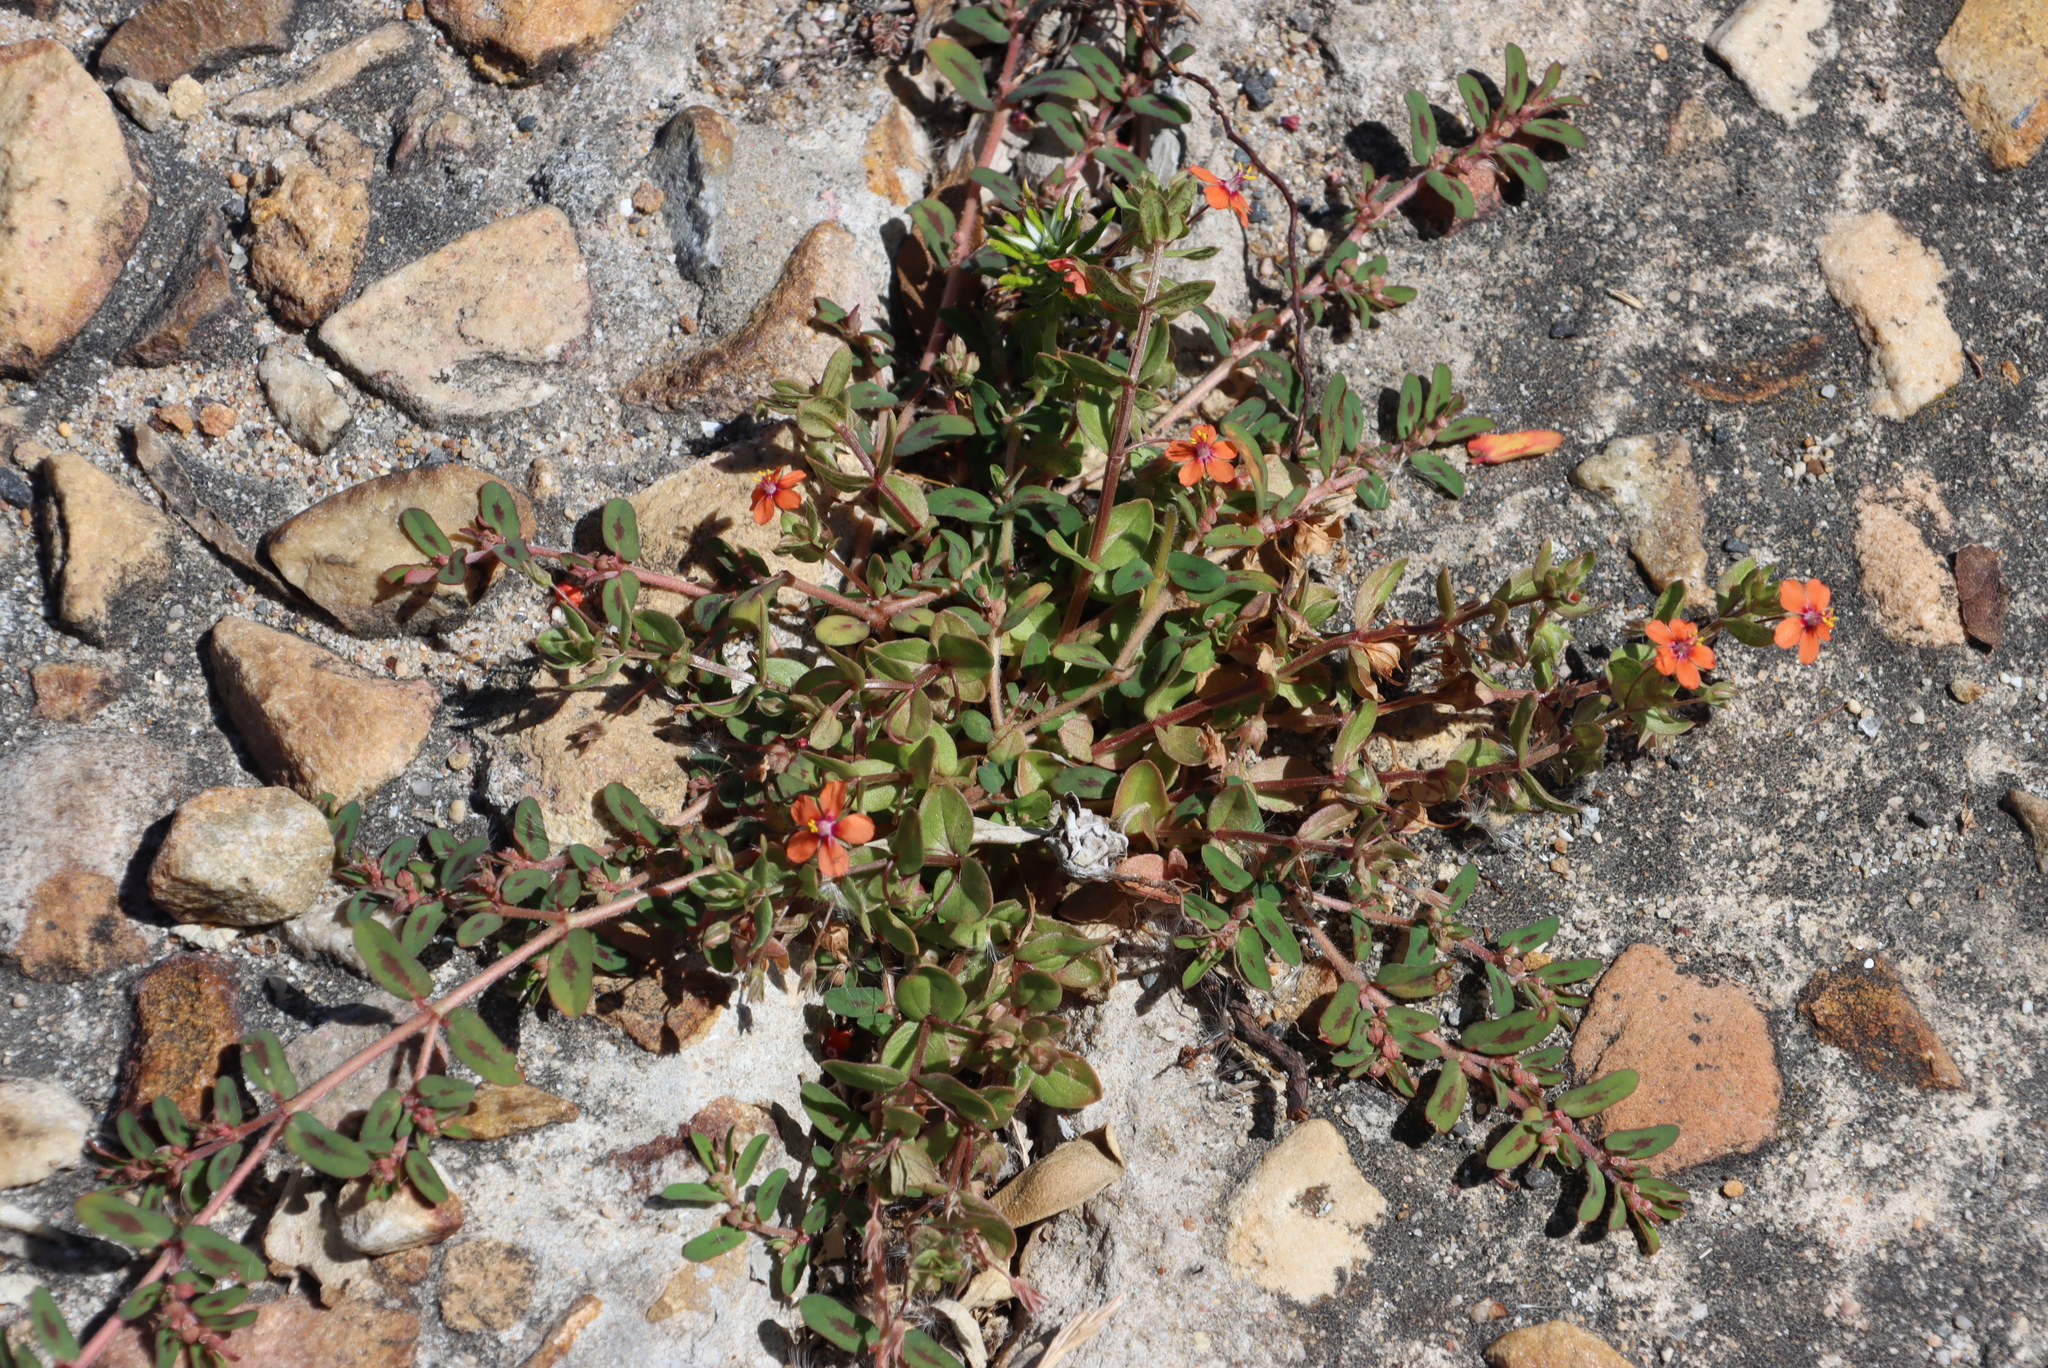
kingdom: Plantae
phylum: Tracheophyta
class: Magnoliopsida
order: Ericales
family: Primulaceae
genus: Lysimachia
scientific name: Lysimachia arvensis
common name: Scarlet pimpernel
